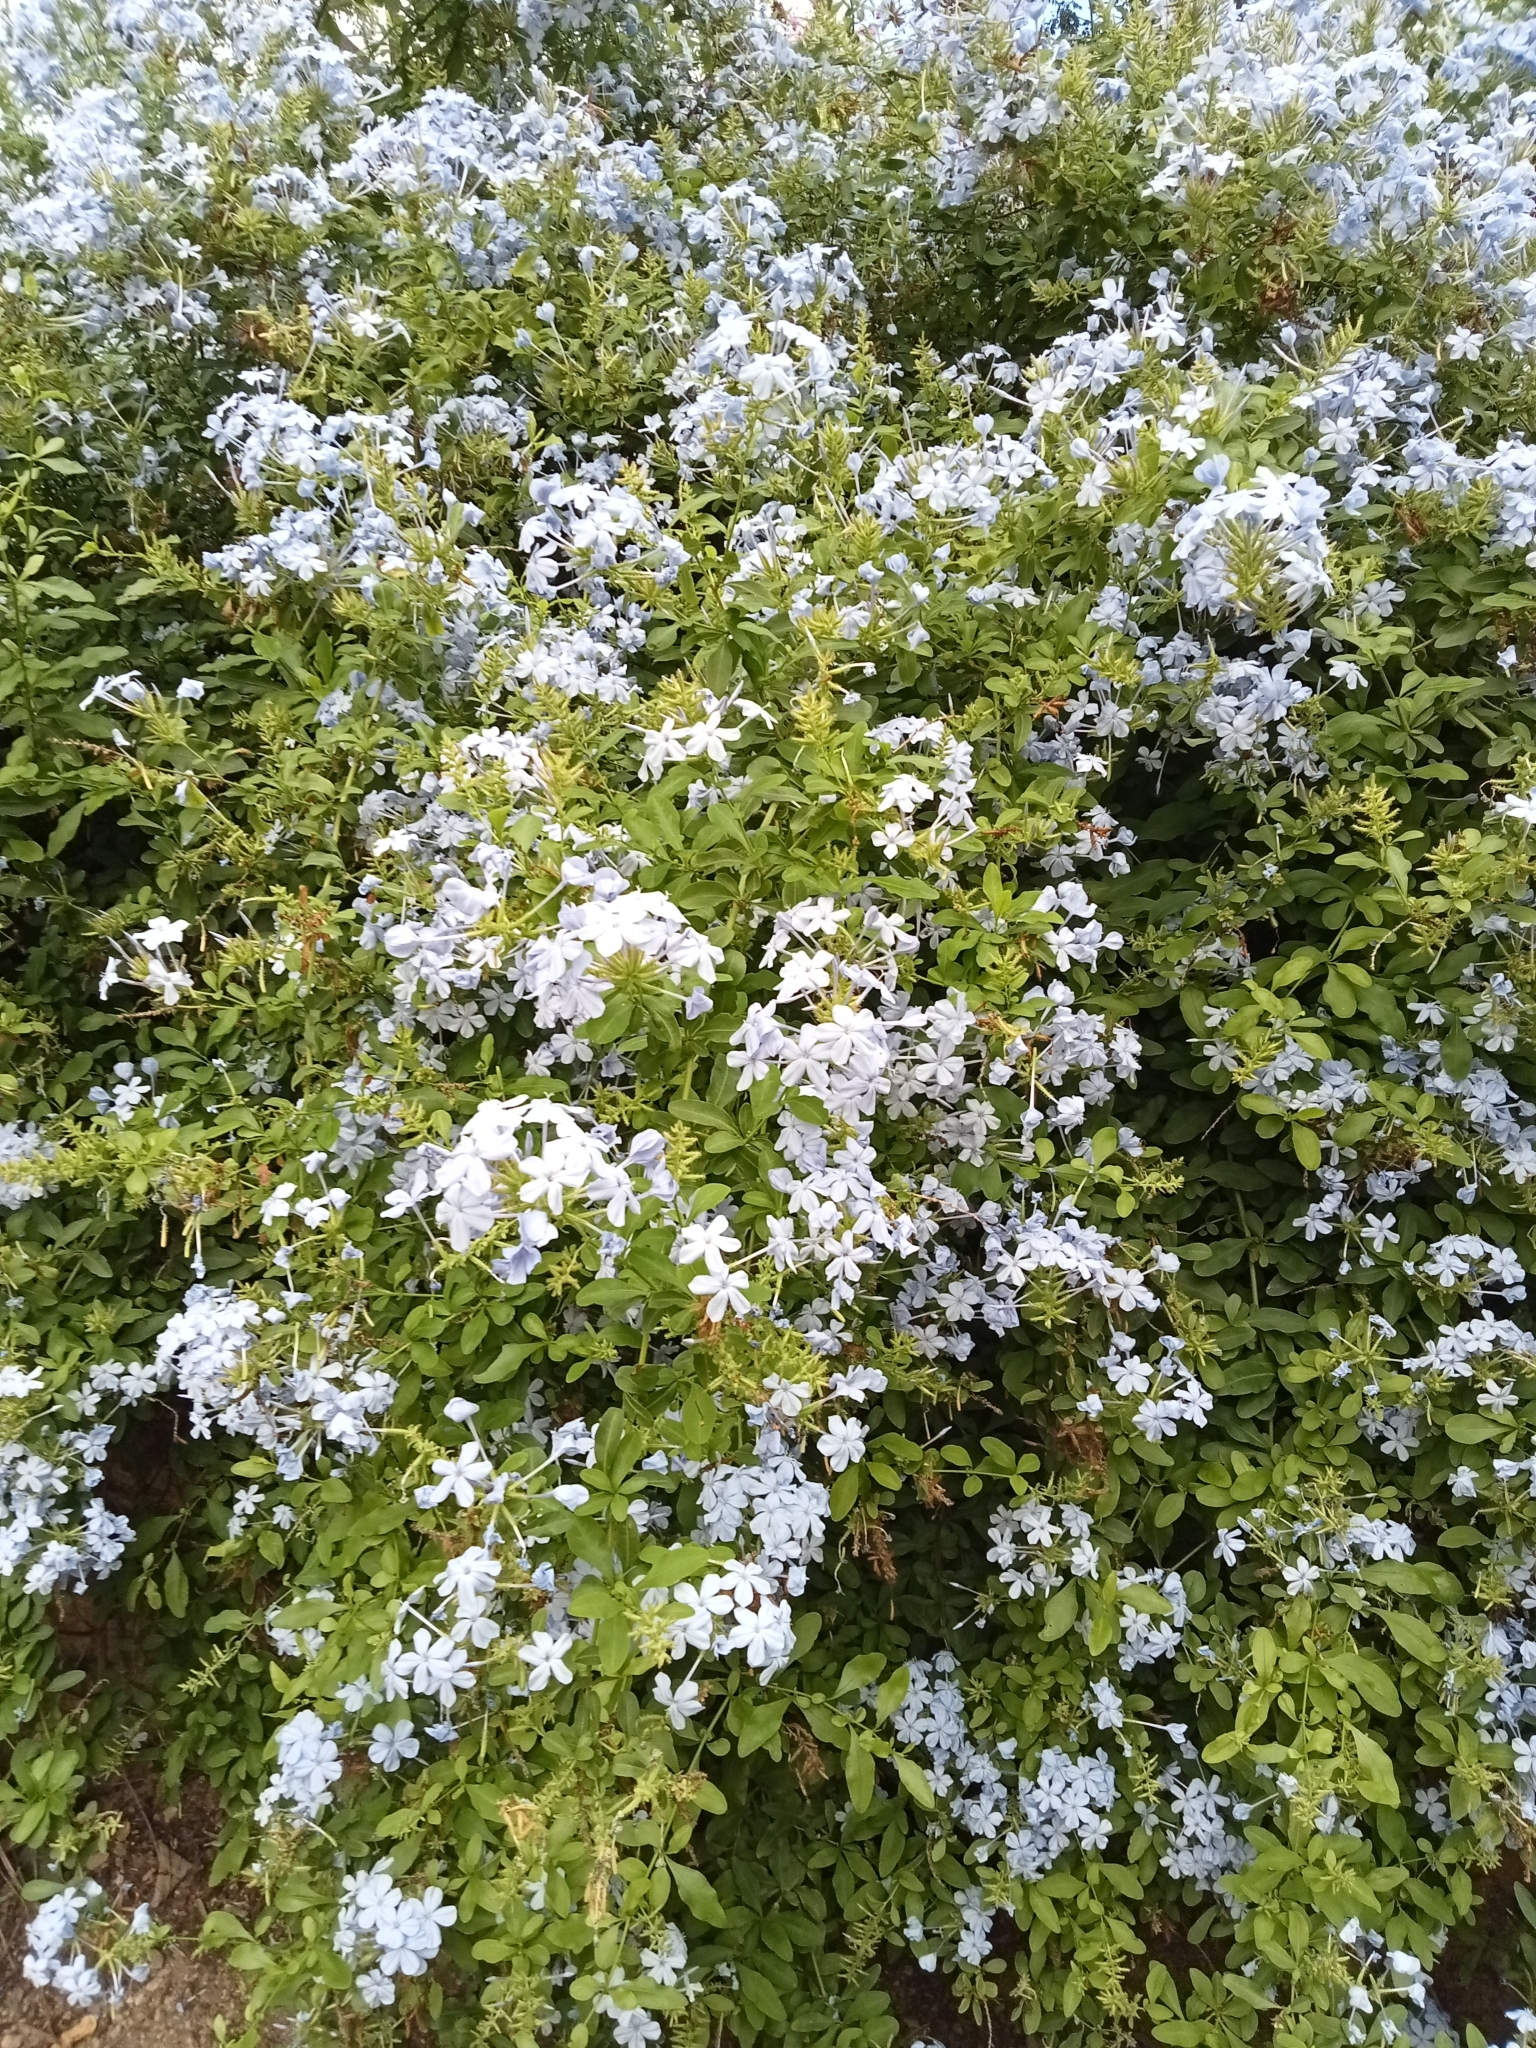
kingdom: Plantae
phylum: Tracheophyta
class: Magnoliopsida
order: Caryophyllales
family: Plumbaginaceae
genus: Plumbago
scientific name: Plumbago auriculata
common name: Cape leadwort
